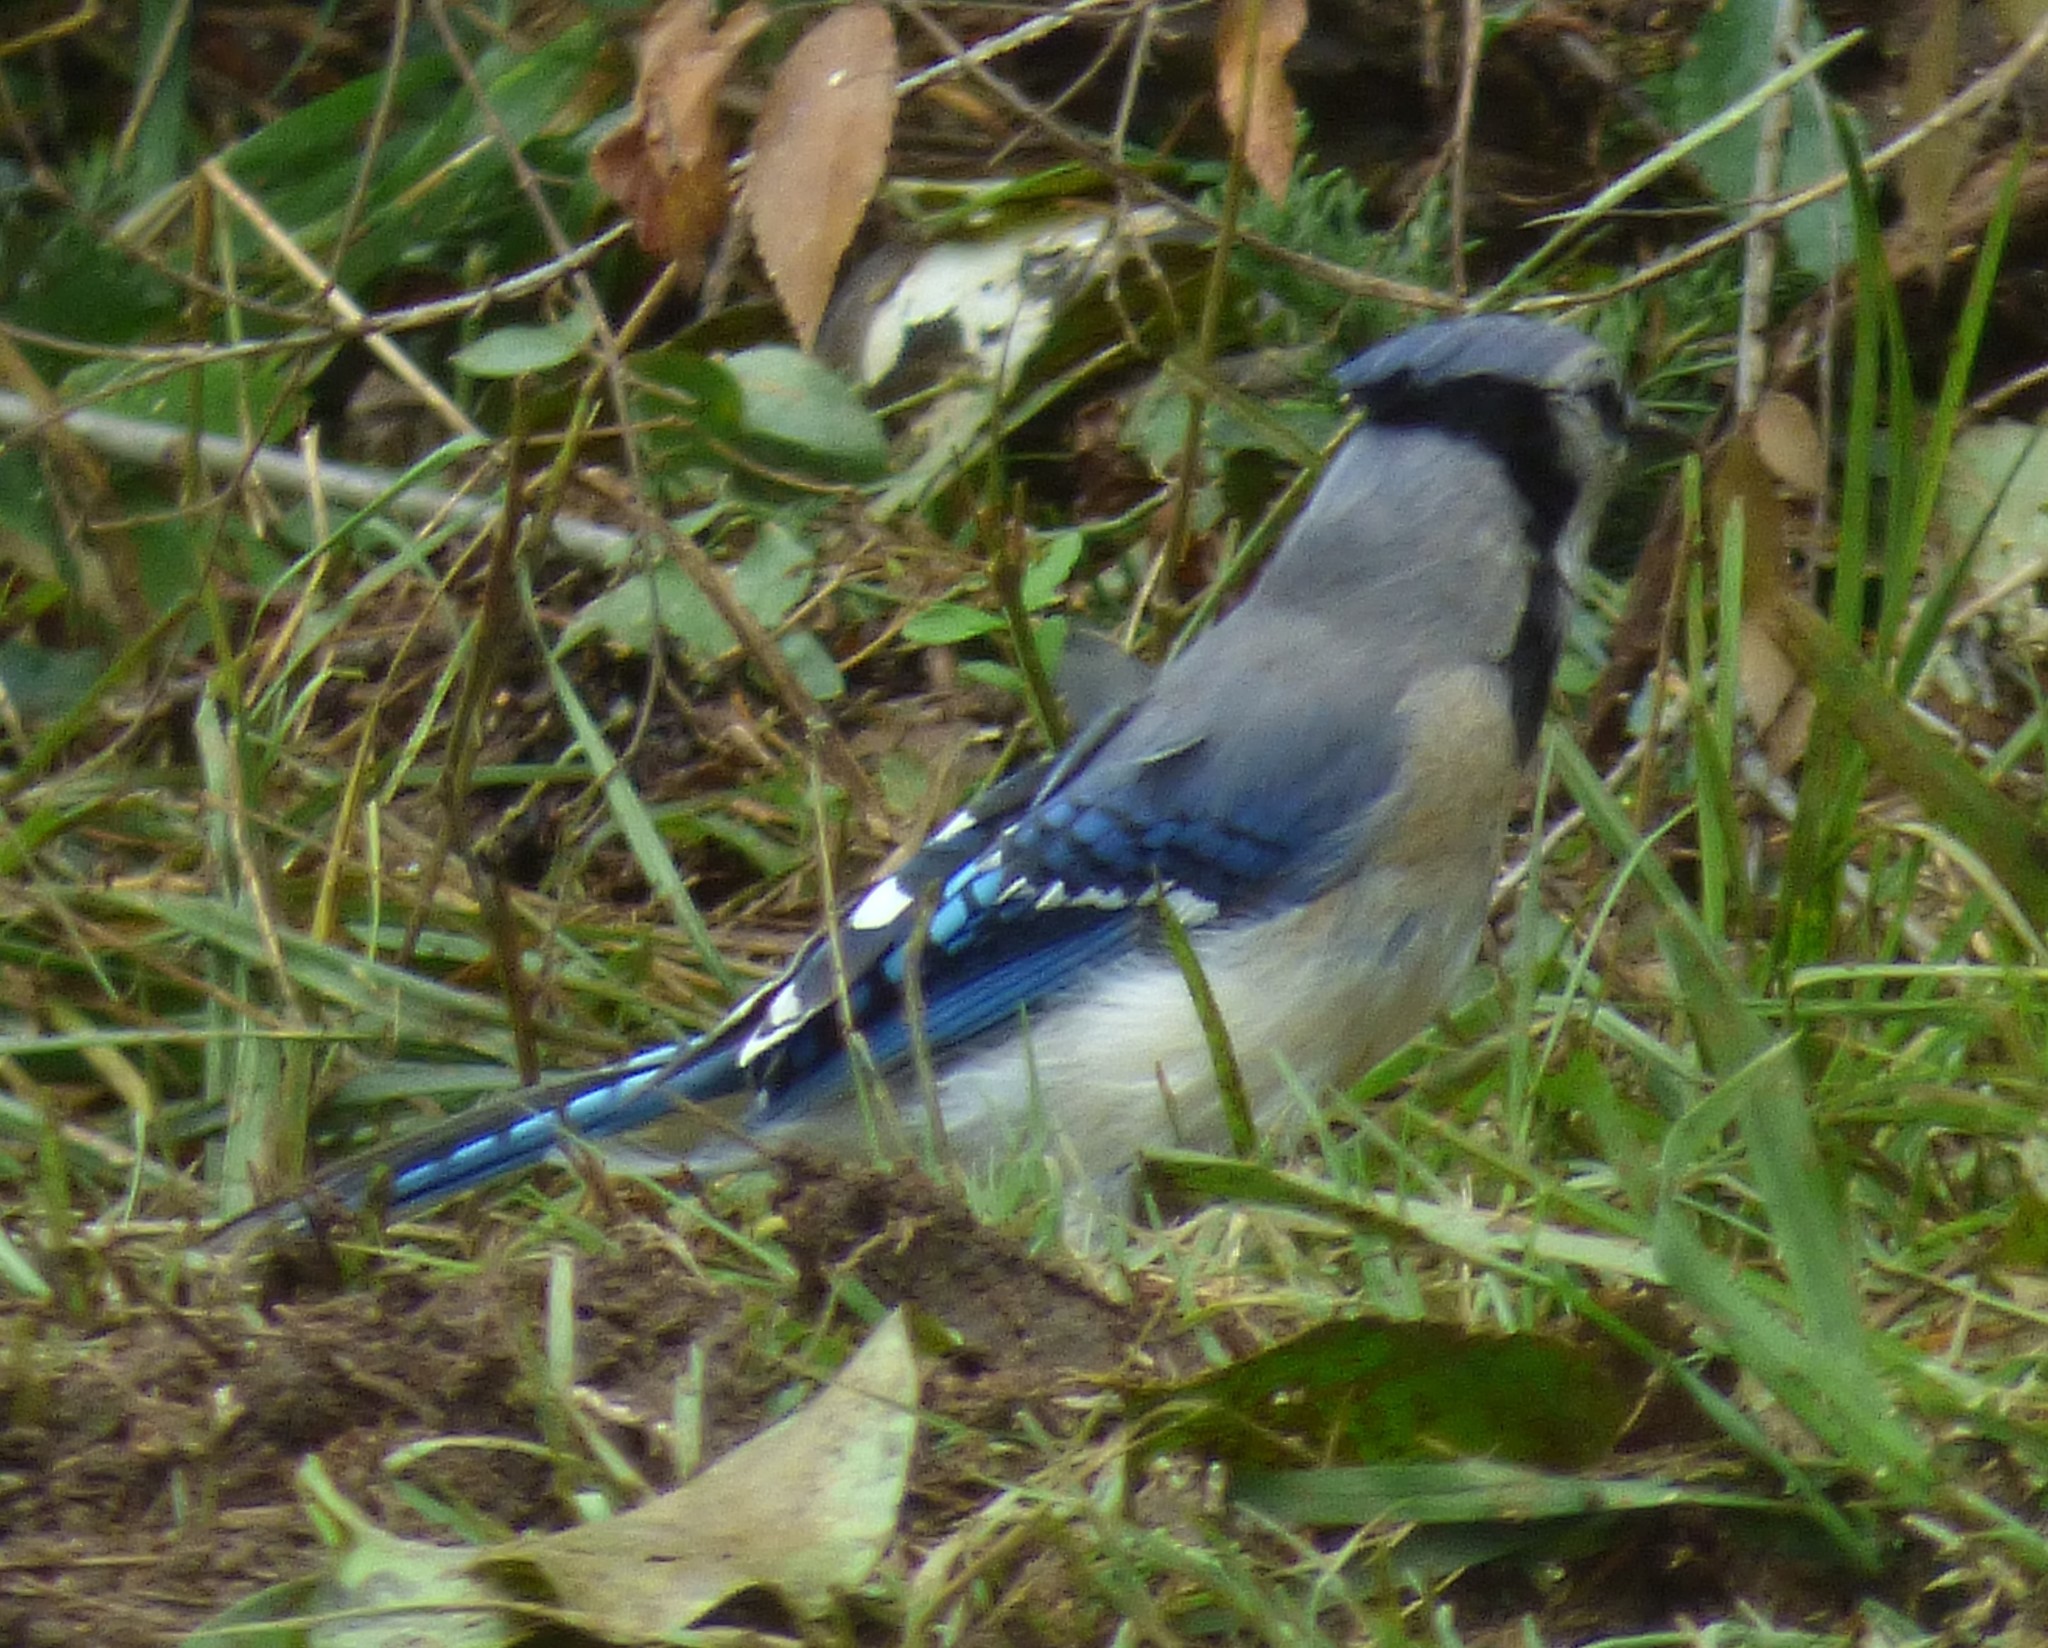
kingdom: Animalia
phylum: Chordata
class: Aves
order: Passeriformes
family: Corvidae
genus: Cyanocitta
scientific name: Cyanocitta cristata
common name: Blue jay
